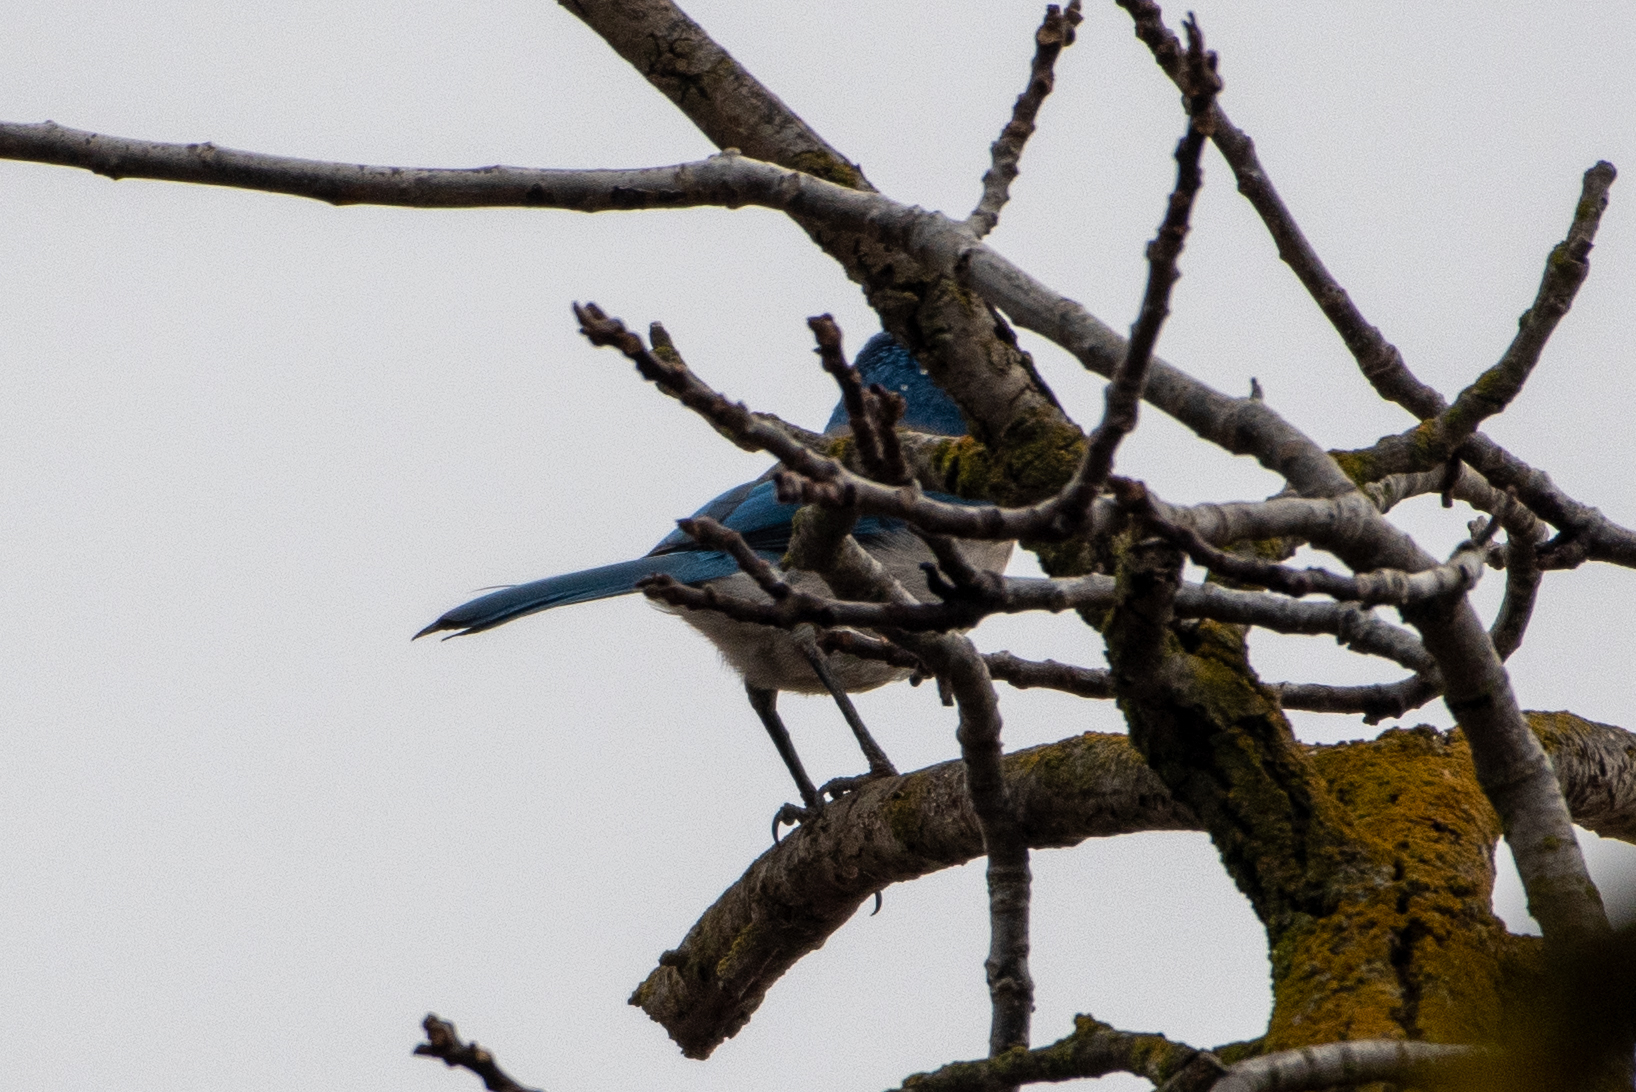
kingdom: Animalia
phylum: Chordata
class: Aves
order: Passeriformes
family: Corvidae
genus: Aphelocoma
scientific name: Aphelocoma californica
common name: California scrub-jay
